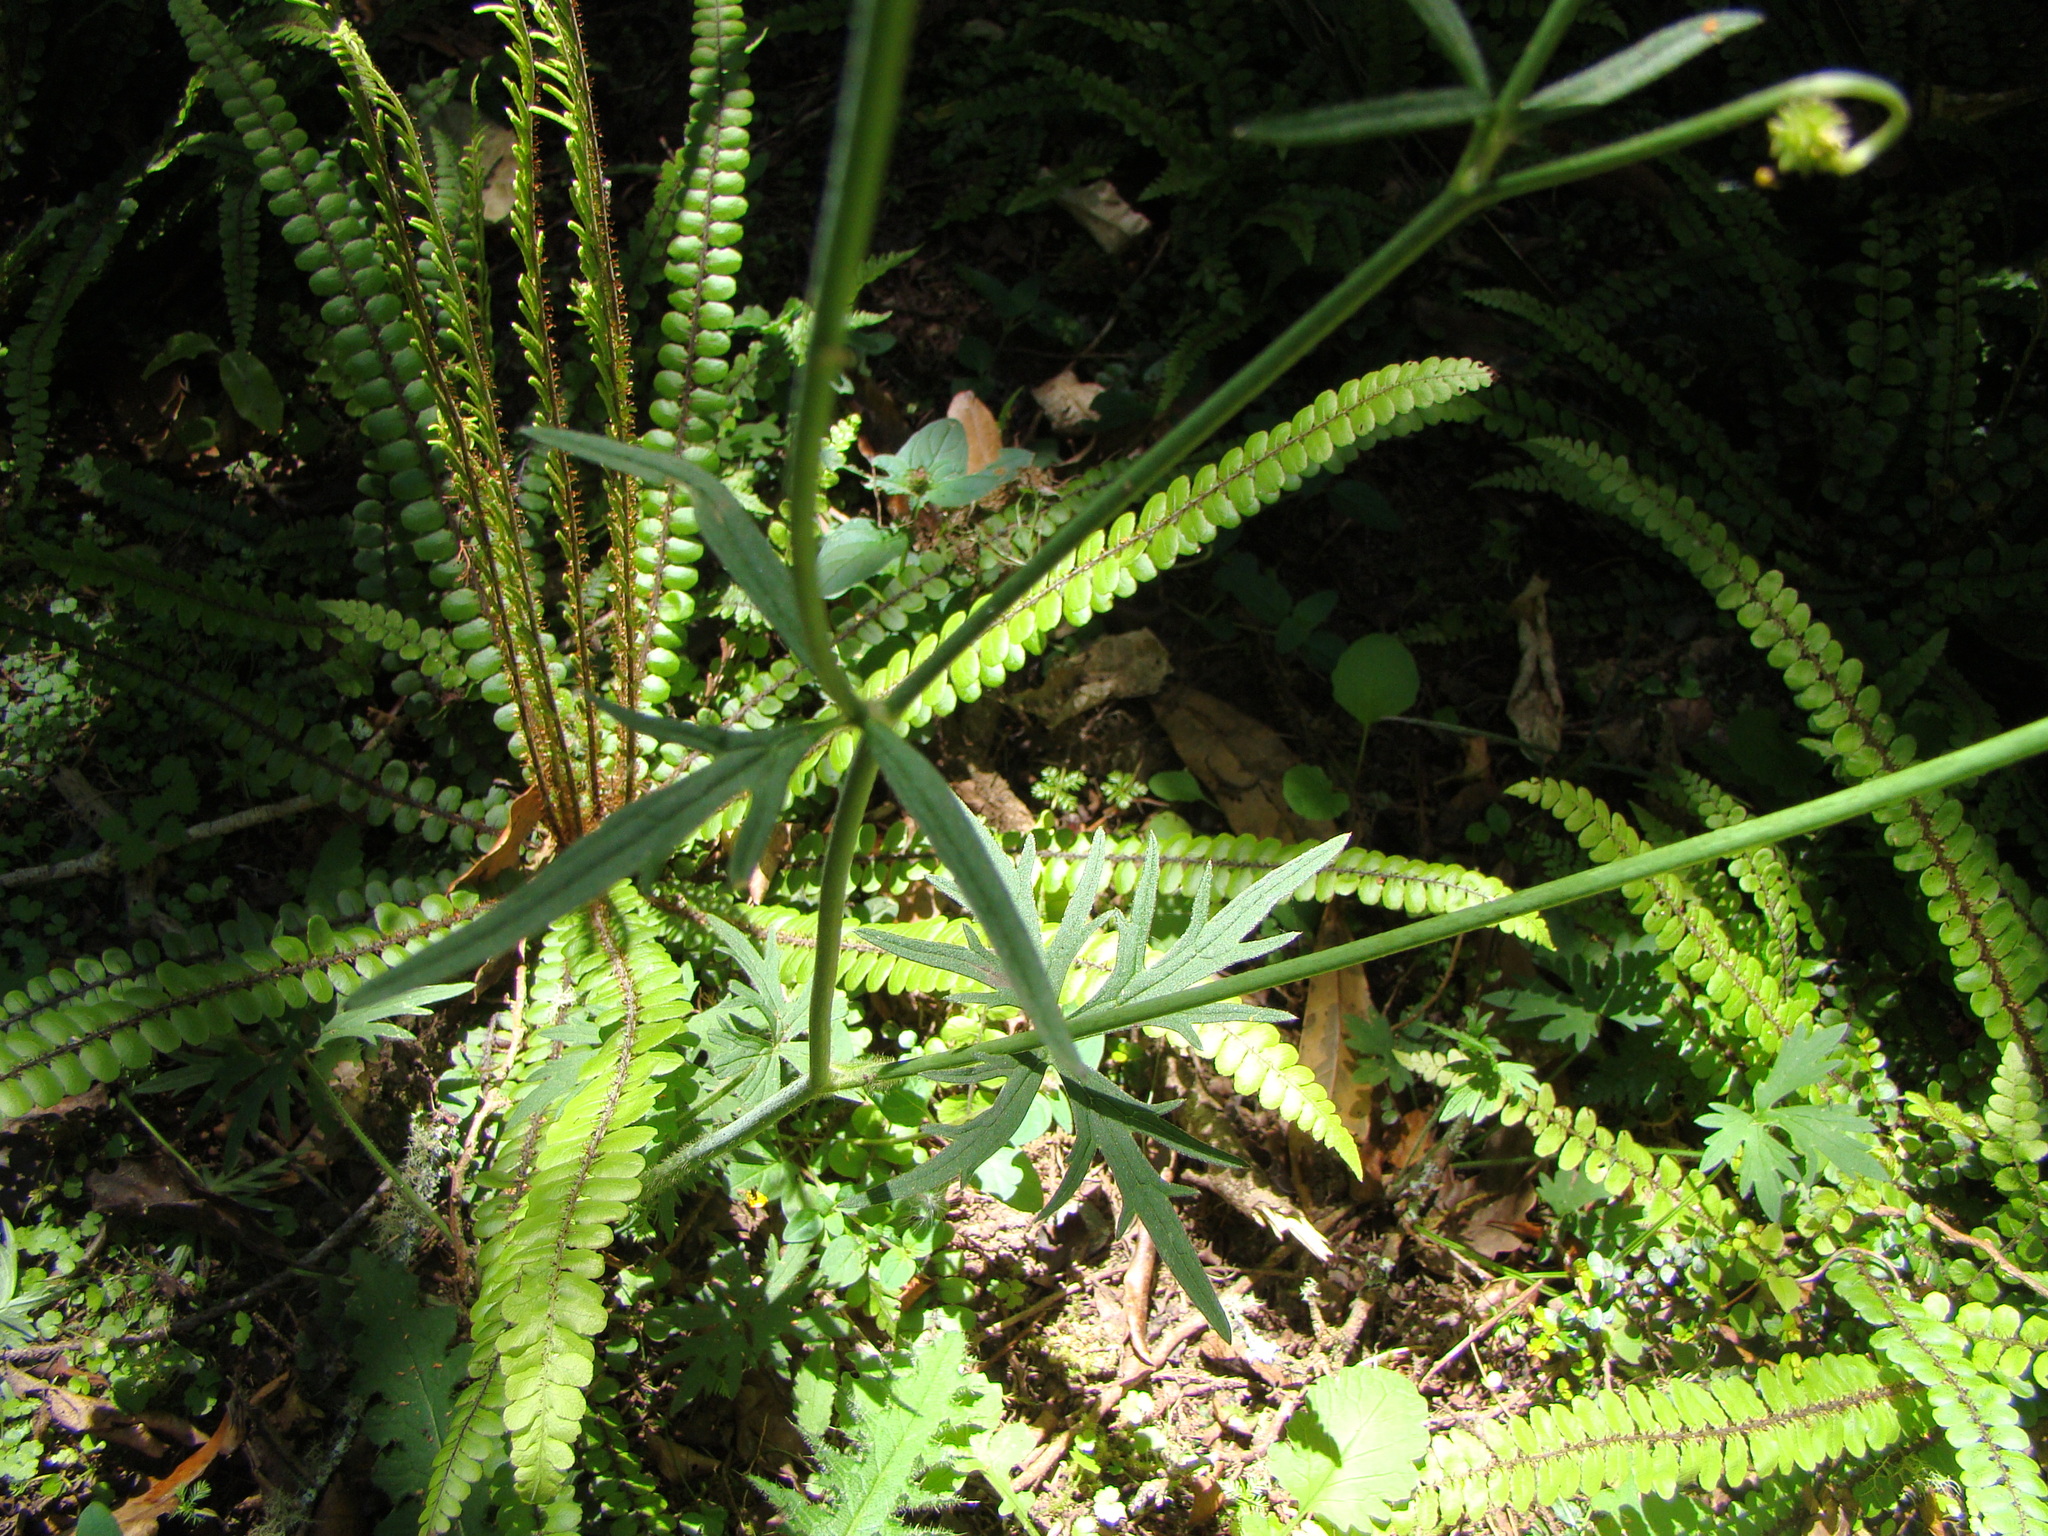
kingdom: Plantae
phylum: Tracheophyta
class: Magnoliopsida
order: Ranunculales
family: Ranunculaceae
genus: Ranunculus
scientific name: Ranunculus acris
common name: Meadow buttercup
